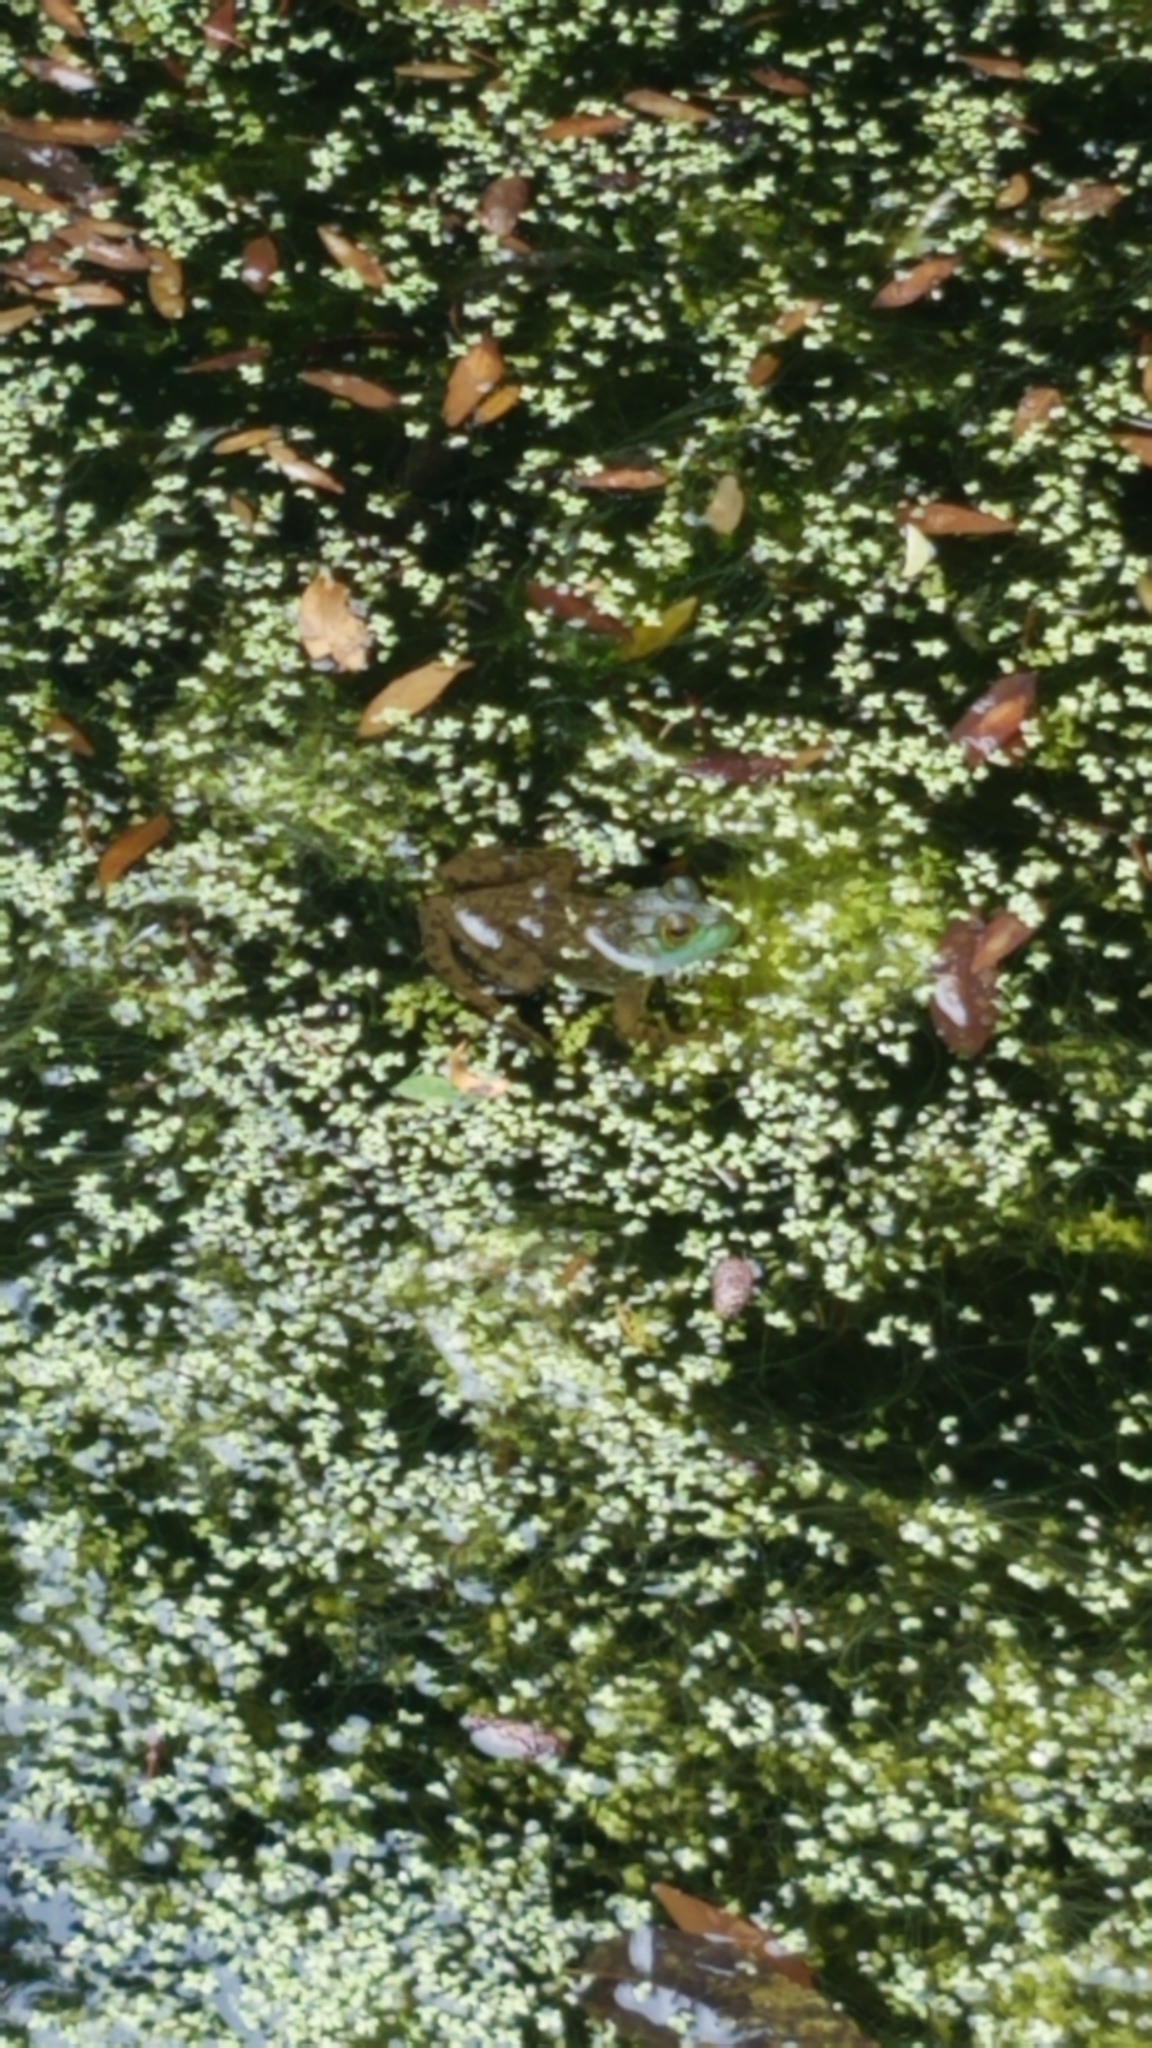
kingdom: Animalia
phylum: Chordata
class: Amphibia
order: Anura
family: Ranidae
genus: Lithobates
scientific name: Lithobates catesbeianus
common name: American bullfrog
